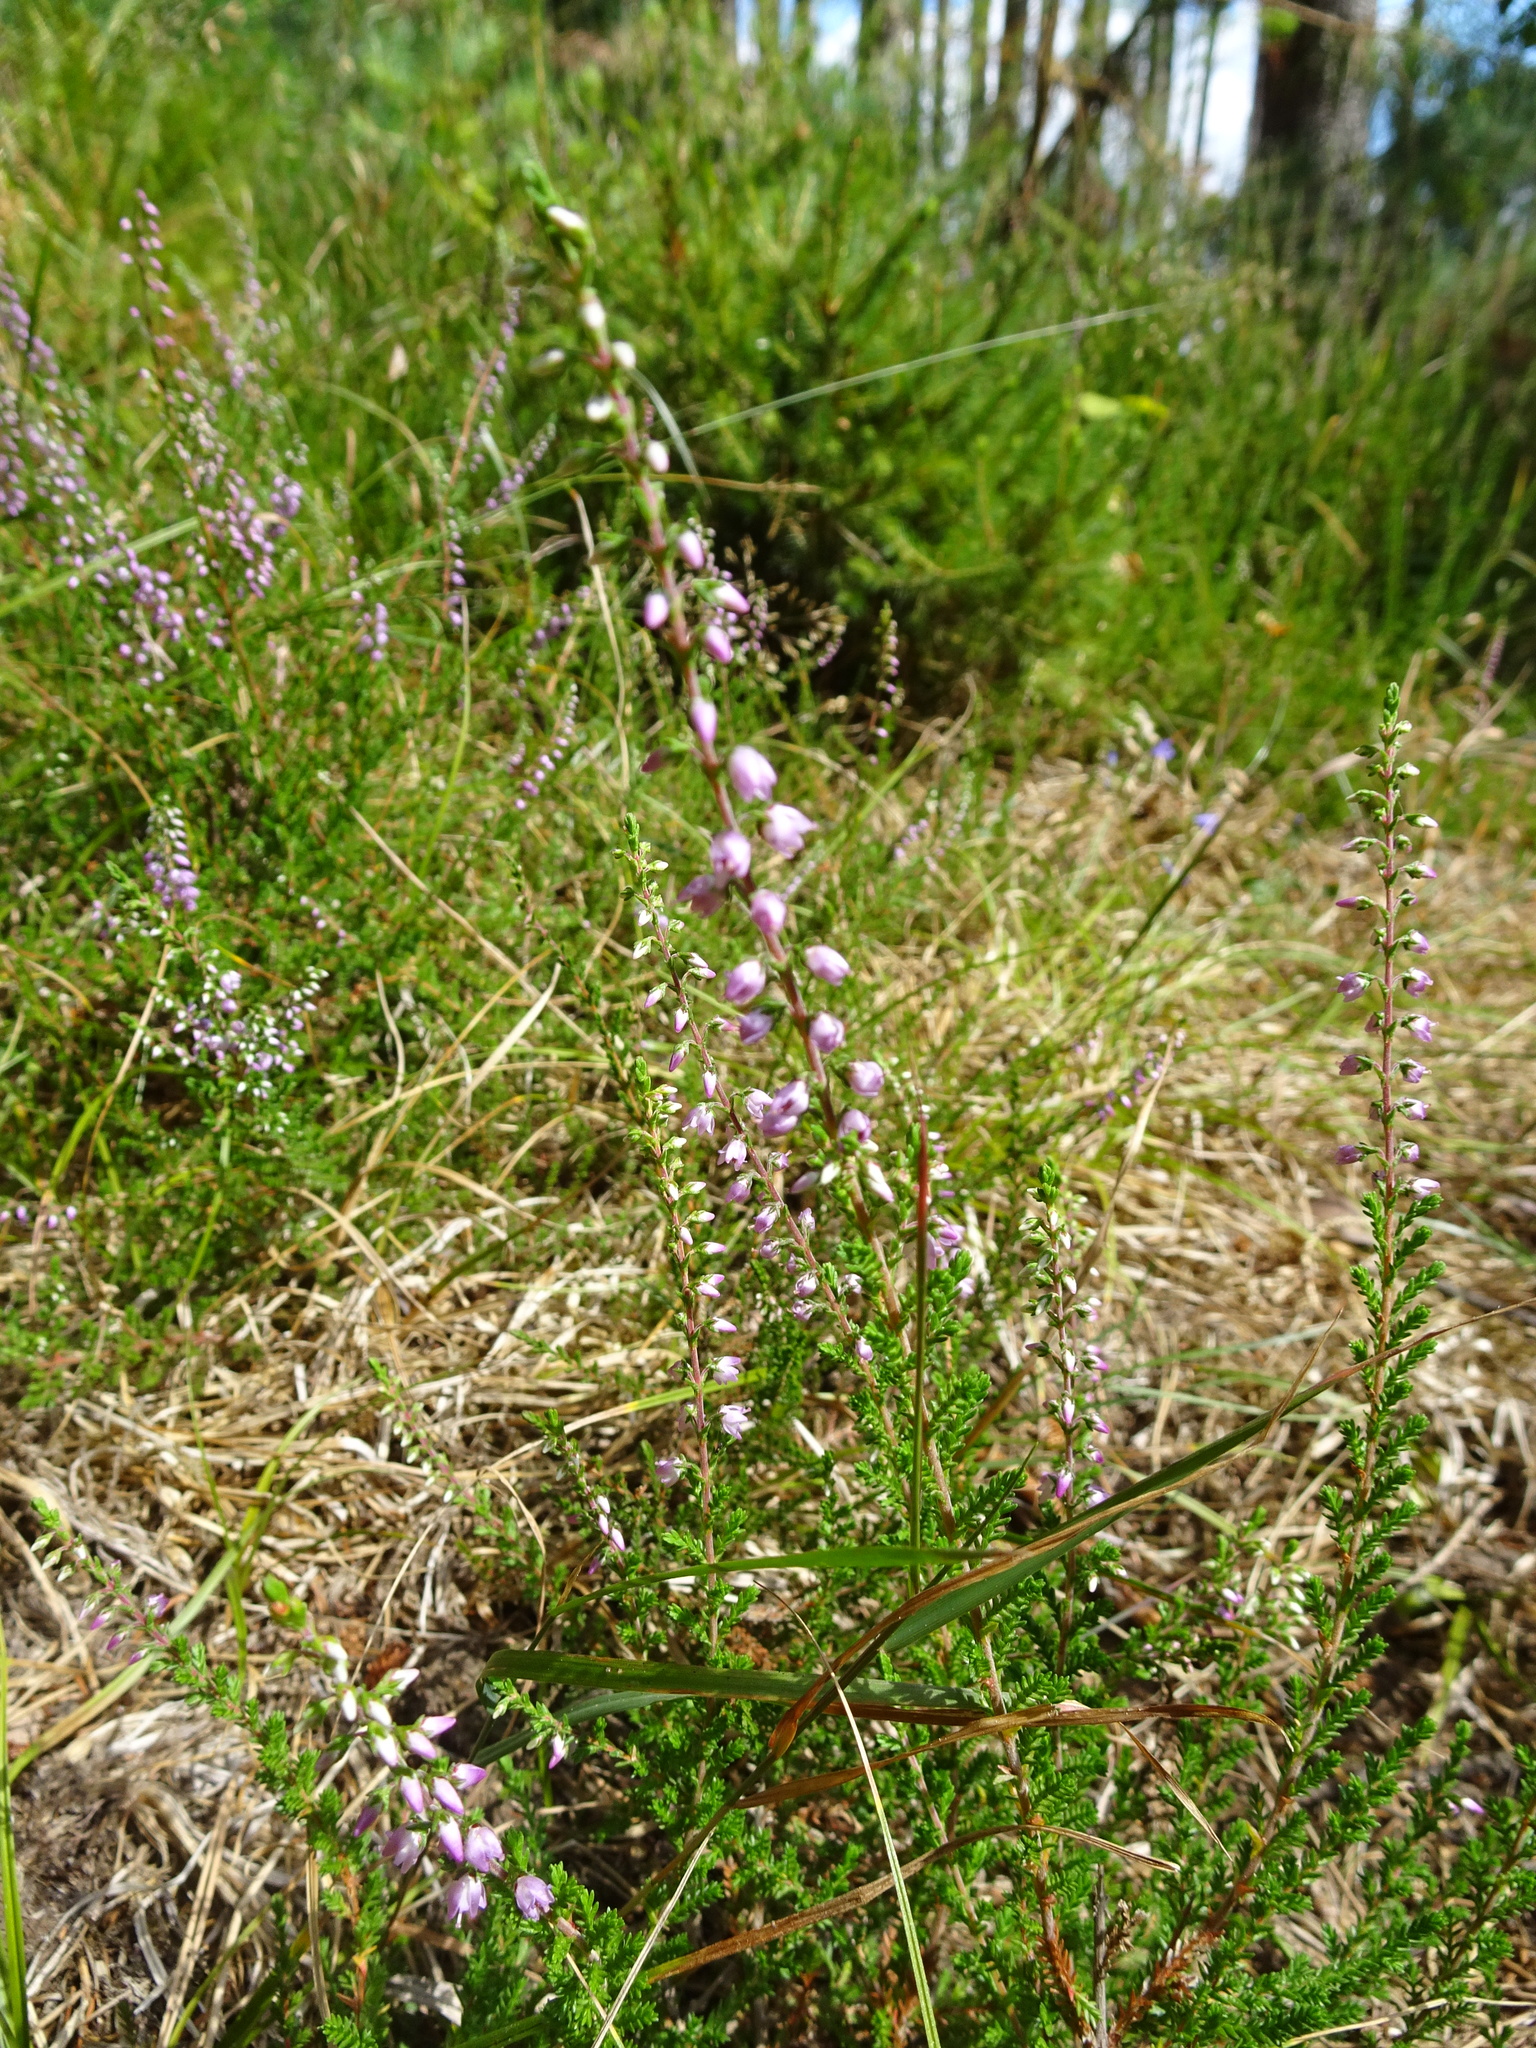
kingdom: Plantae
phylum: Tracheophyta
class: Magnoliopsida
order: Ericales
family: Ericaceae
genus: Calluna
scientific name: Calluna vulgaris
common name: Heather
